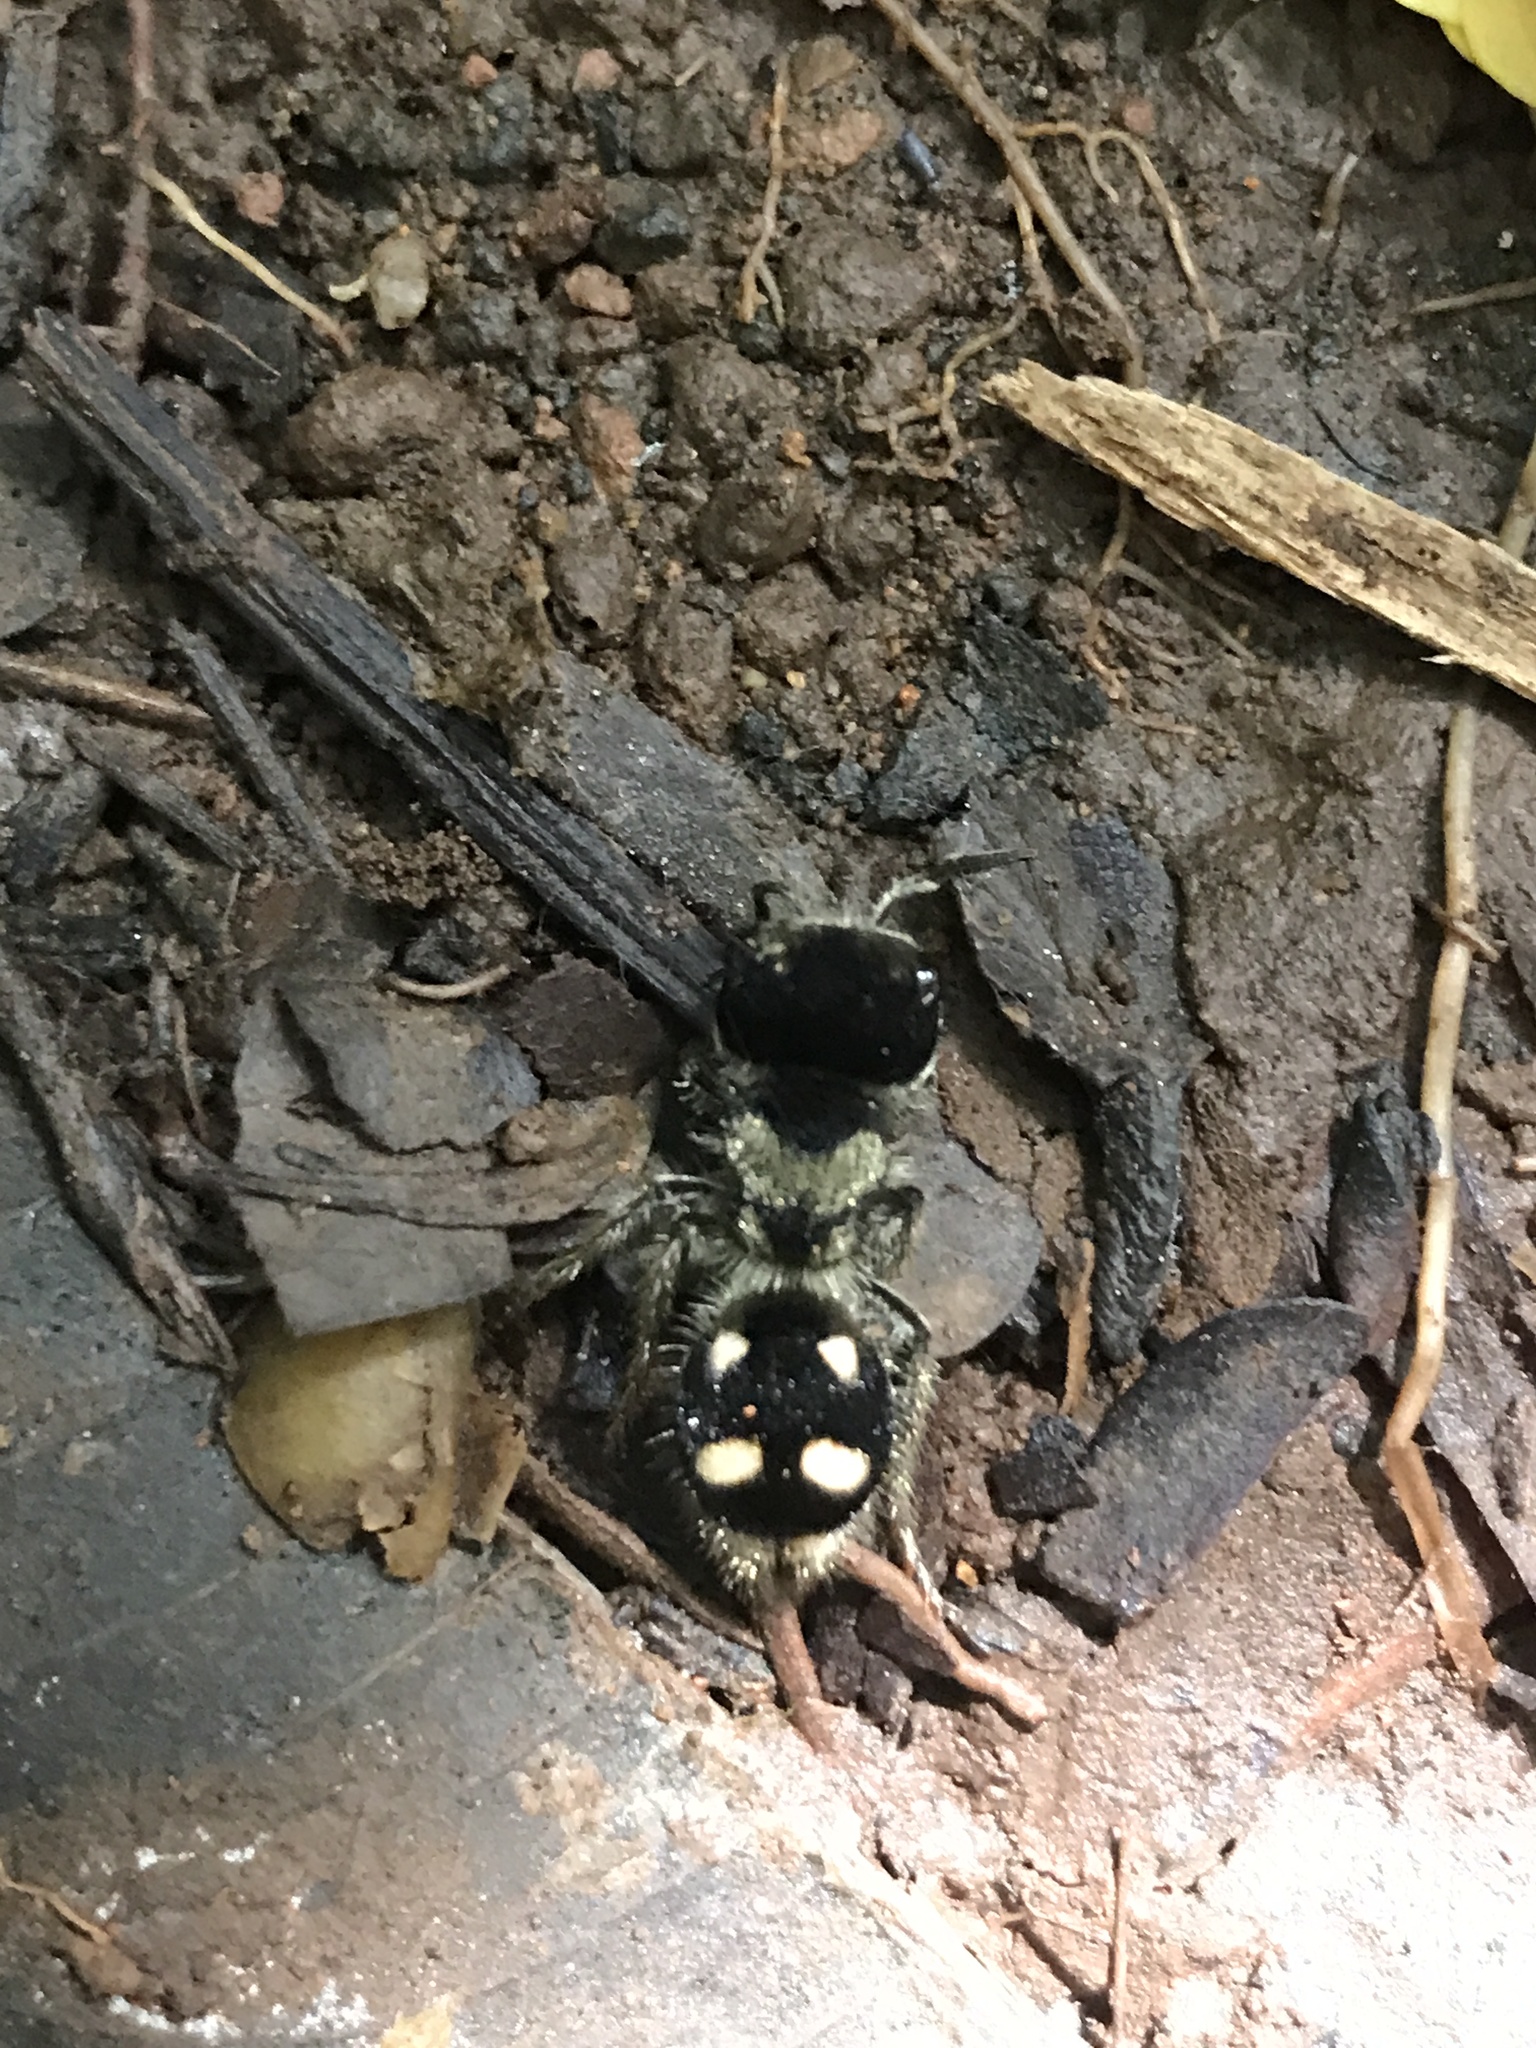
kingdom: Animalia
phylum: Arthropoda
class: Insecta
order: Hymenoptera
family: Mutillidae
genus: Pseudomethoca
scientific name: Pseudomethoca
